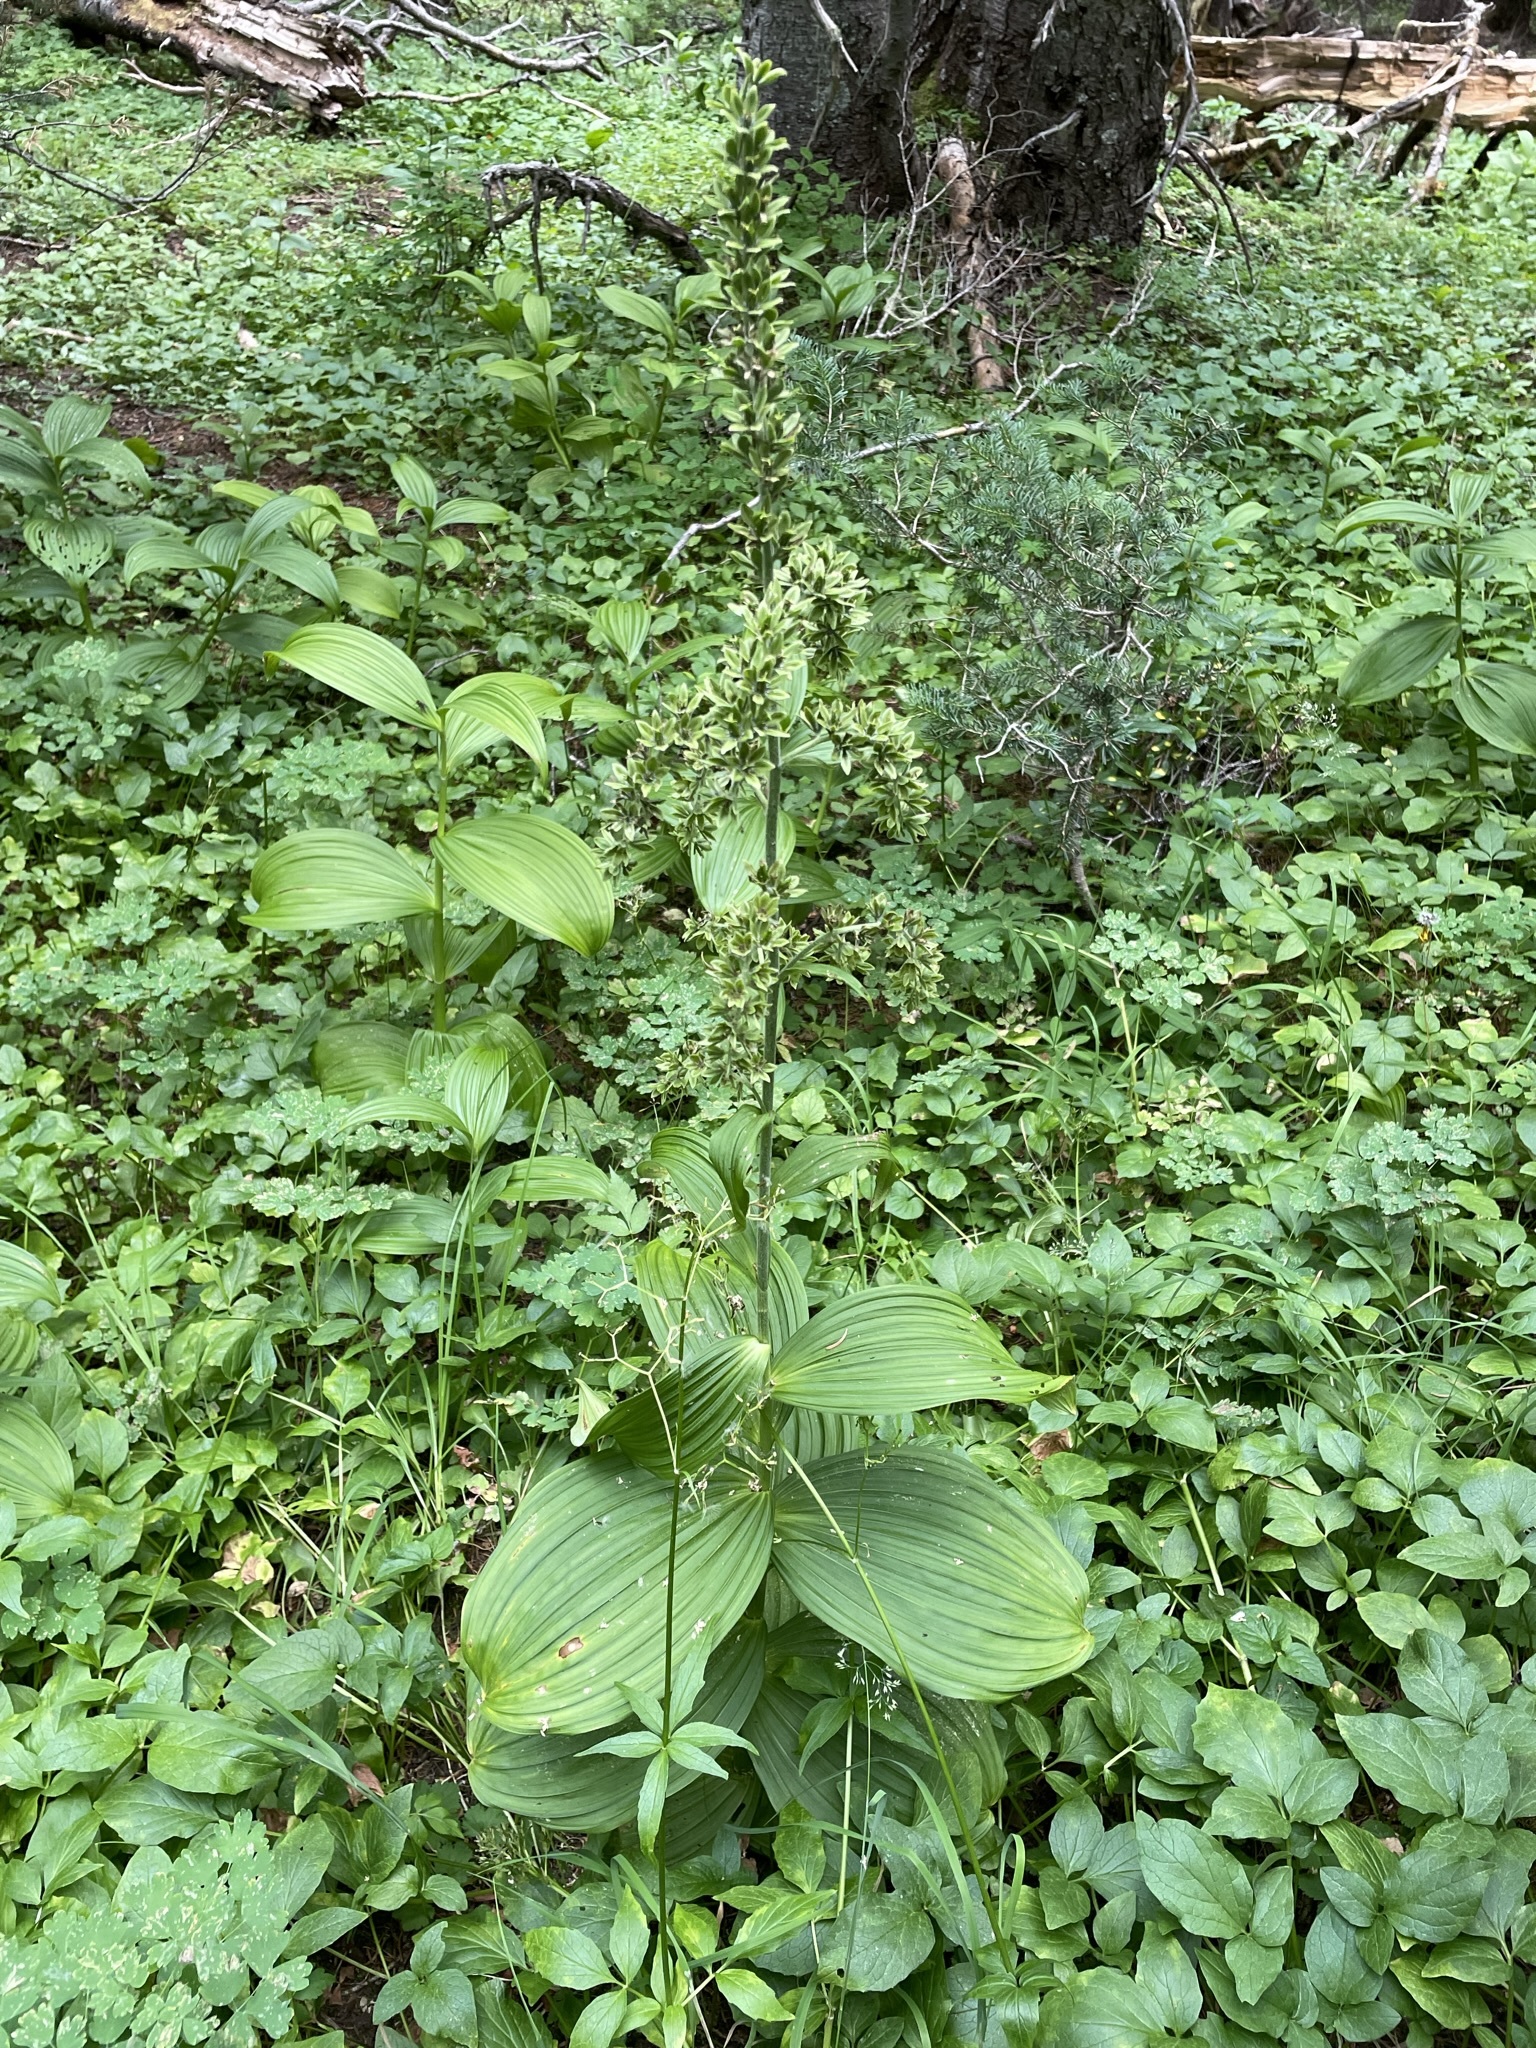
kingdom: Plantae
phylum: Tracheophyta
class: Liliopsida
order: Liliales
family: Melanthiaceae
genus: Veratrum
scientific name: Veratrum viride
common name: American false hellebore
